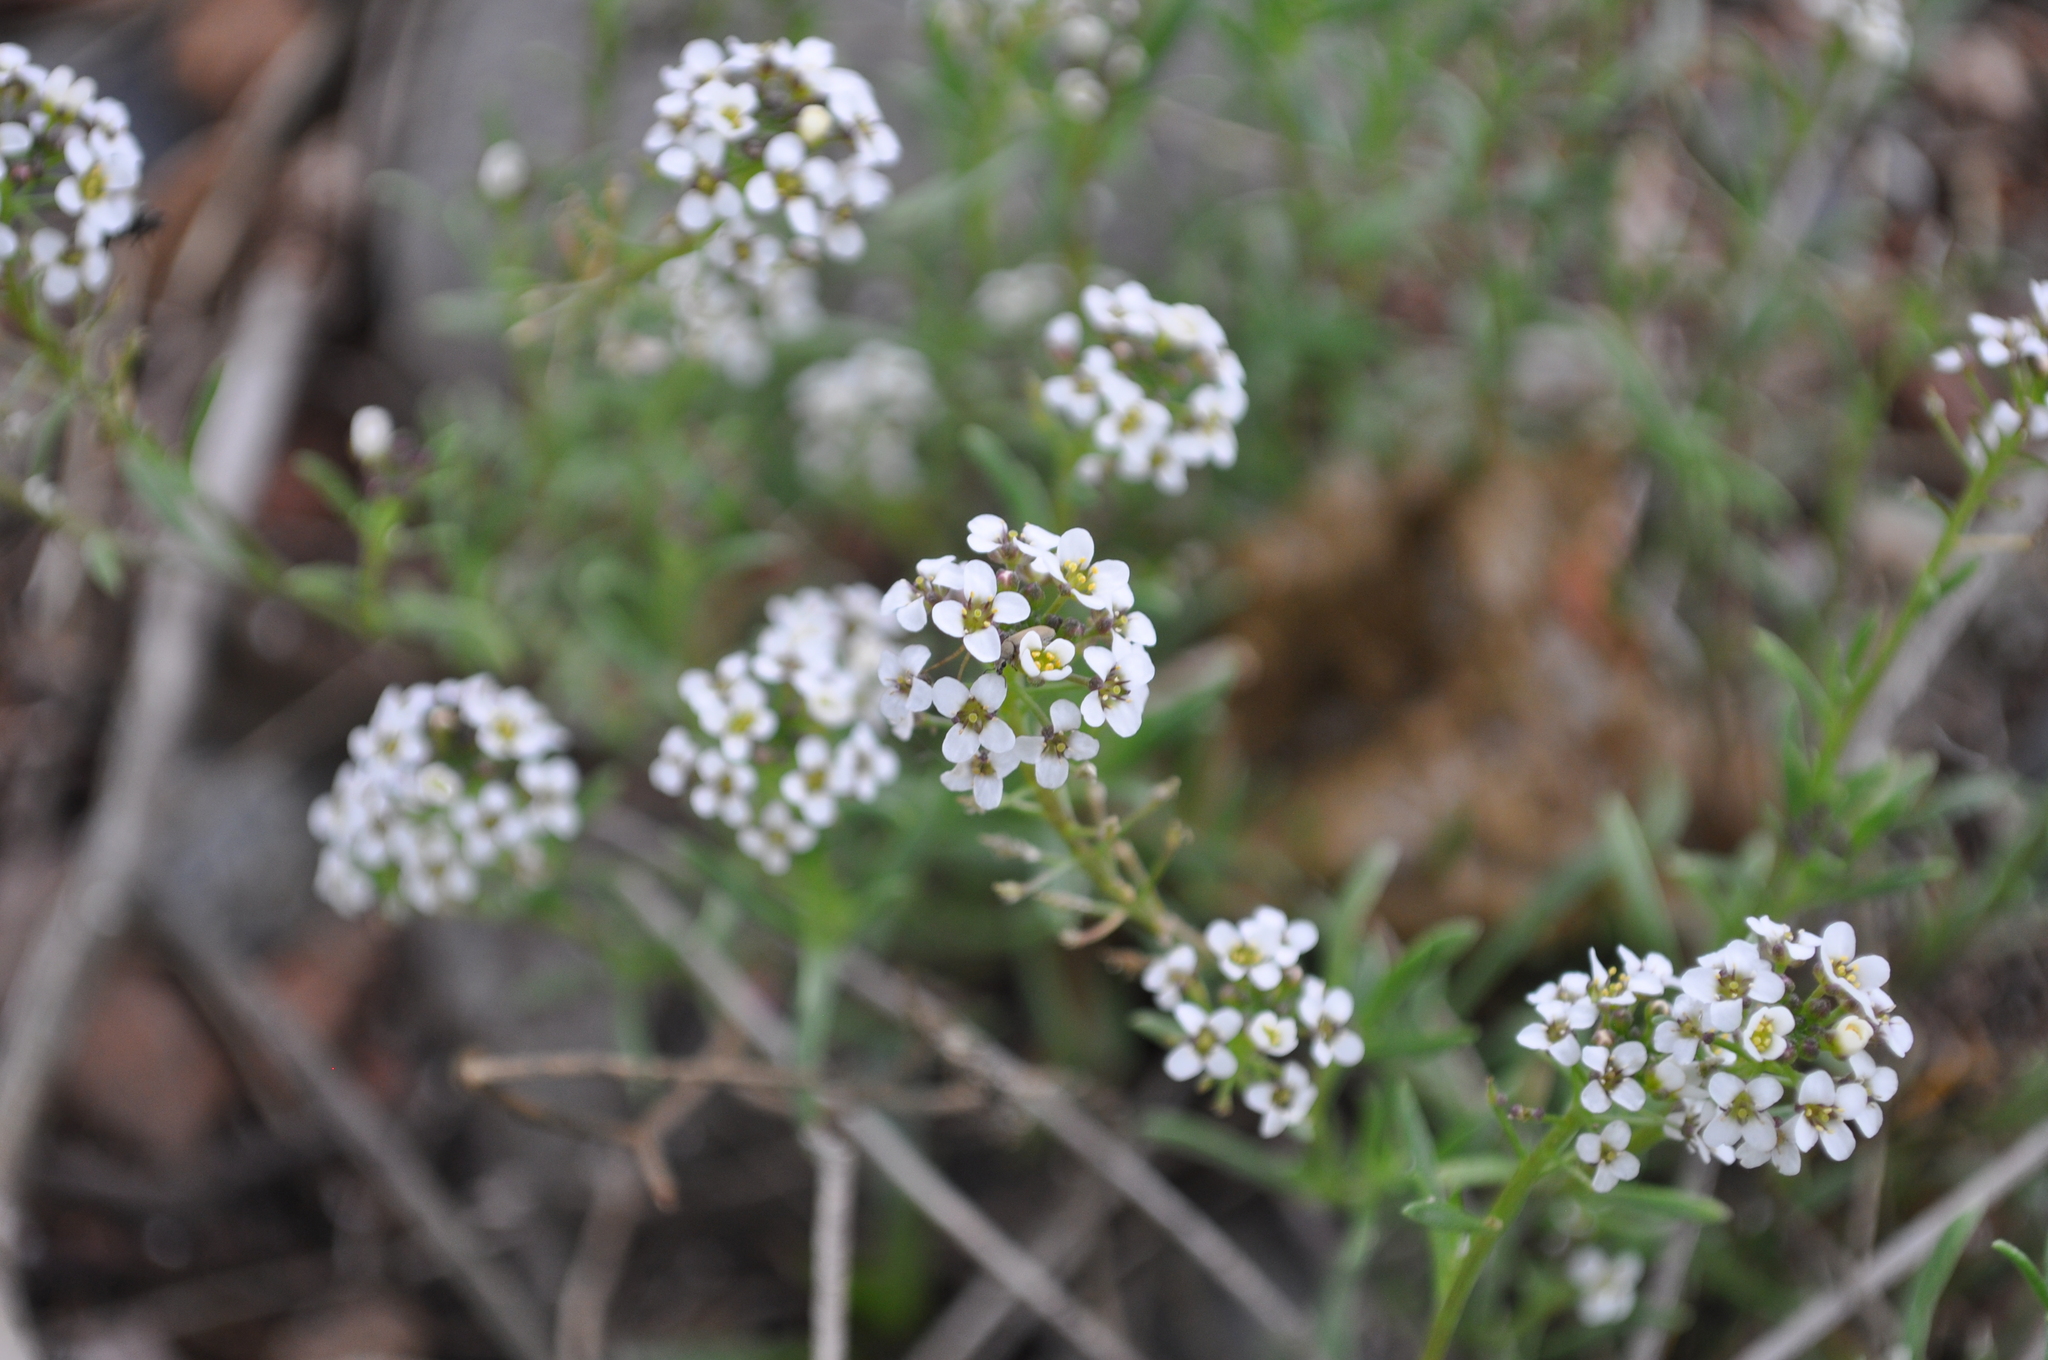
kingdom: Plantae
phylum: Tracheophyta
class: Magnoliopsida
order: Brassicales
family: Brassicaceae
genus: Lobularia
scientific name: Lobularia maritima
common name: Sweet alison
